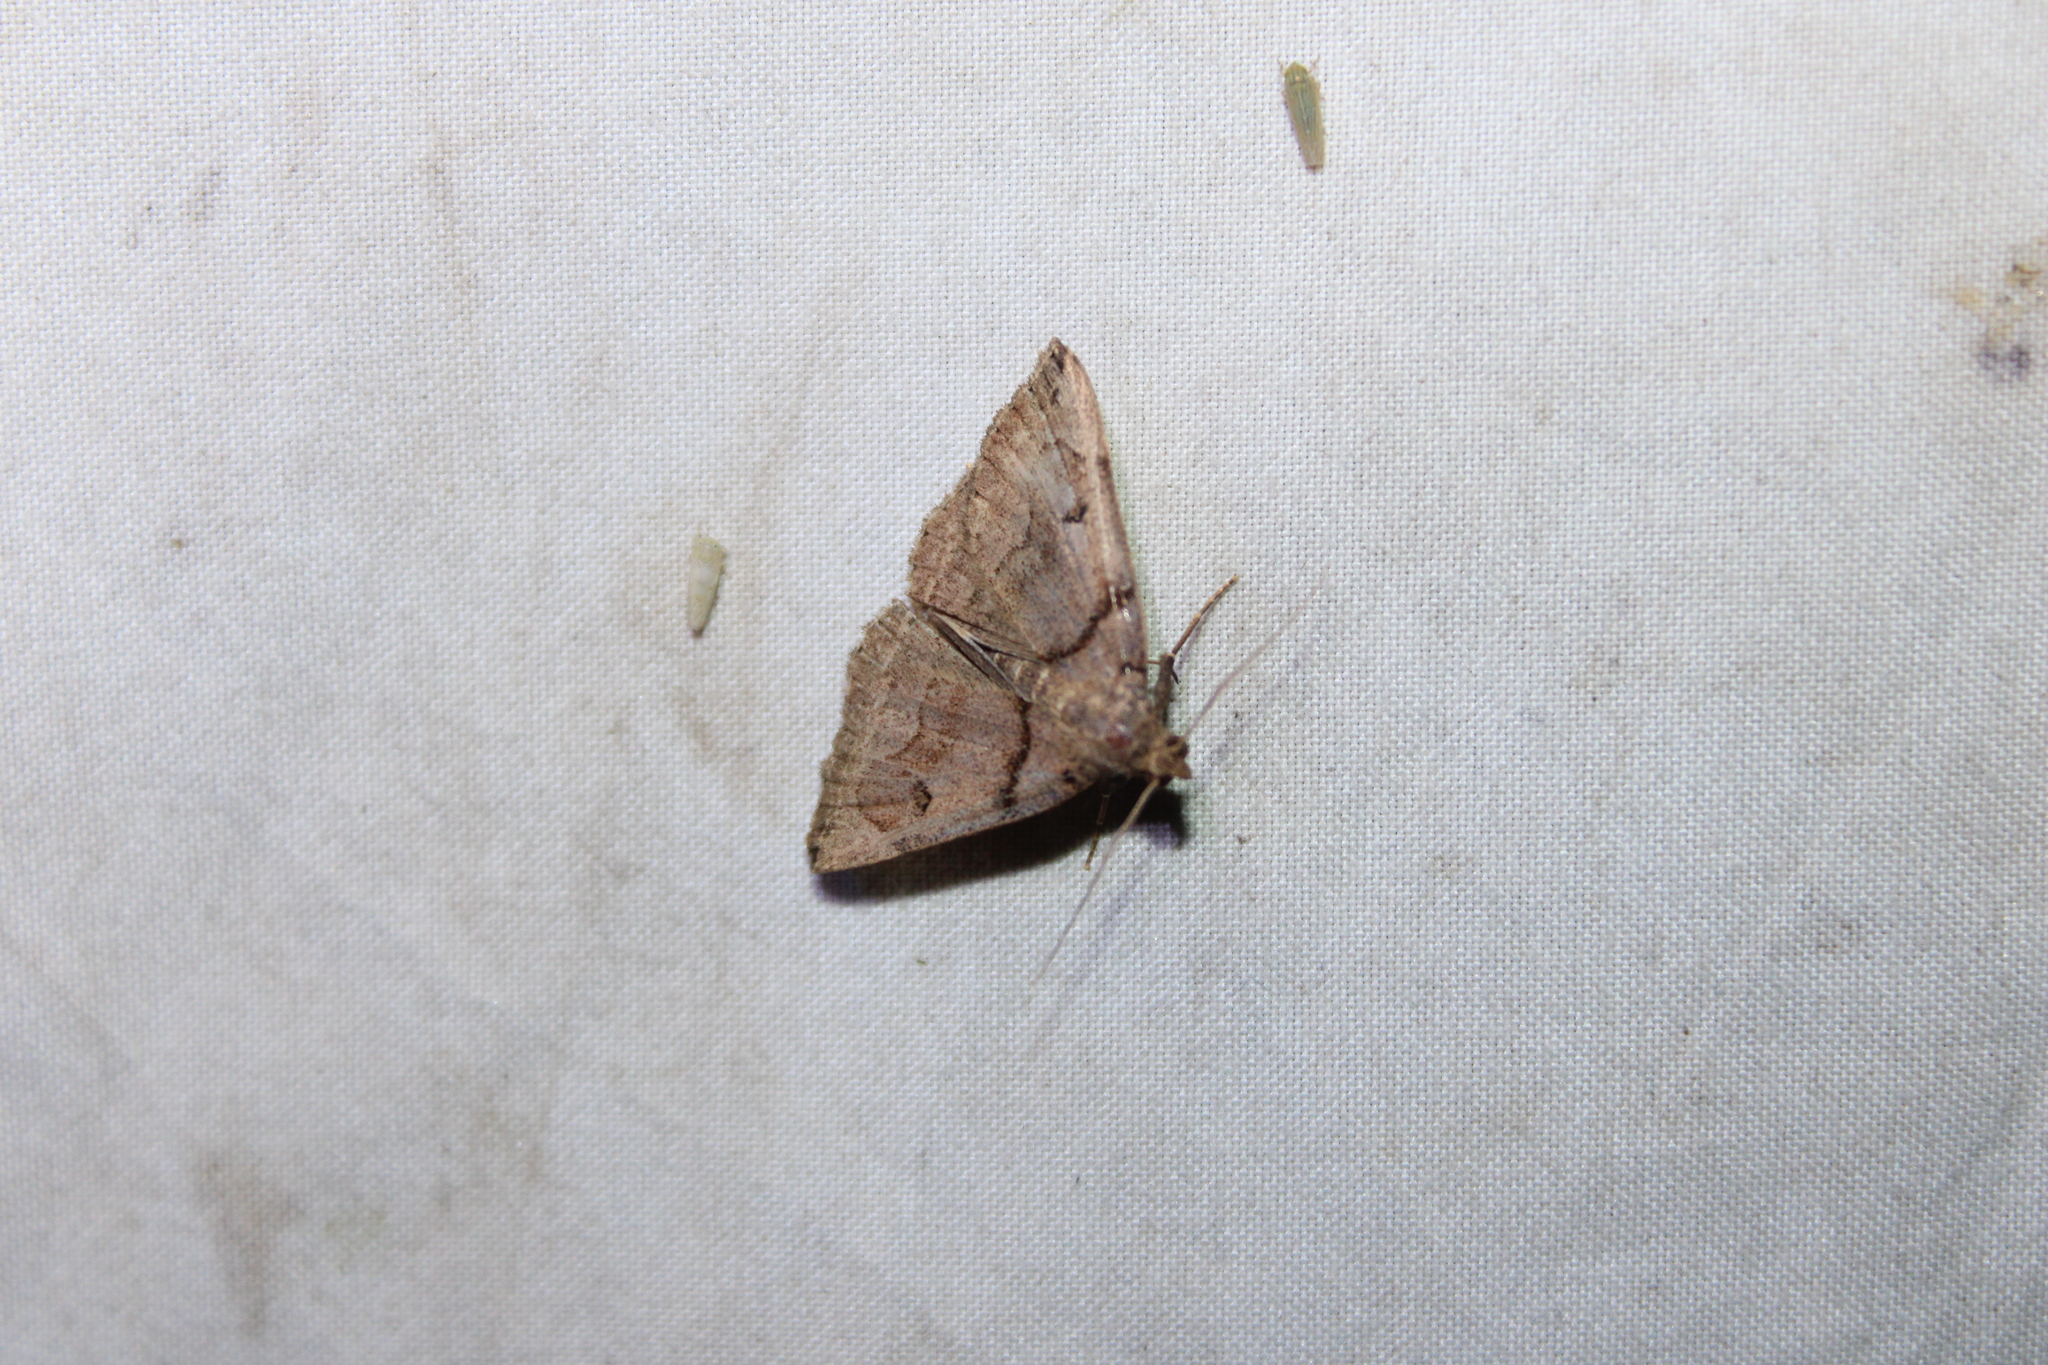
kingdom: Animalia
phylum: Arthropoda
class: Insecta
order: Lepidoptera
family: Erebidae
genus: Zanclognatha
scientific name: Zanclognatha laevigata
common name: Variable fan-foot
